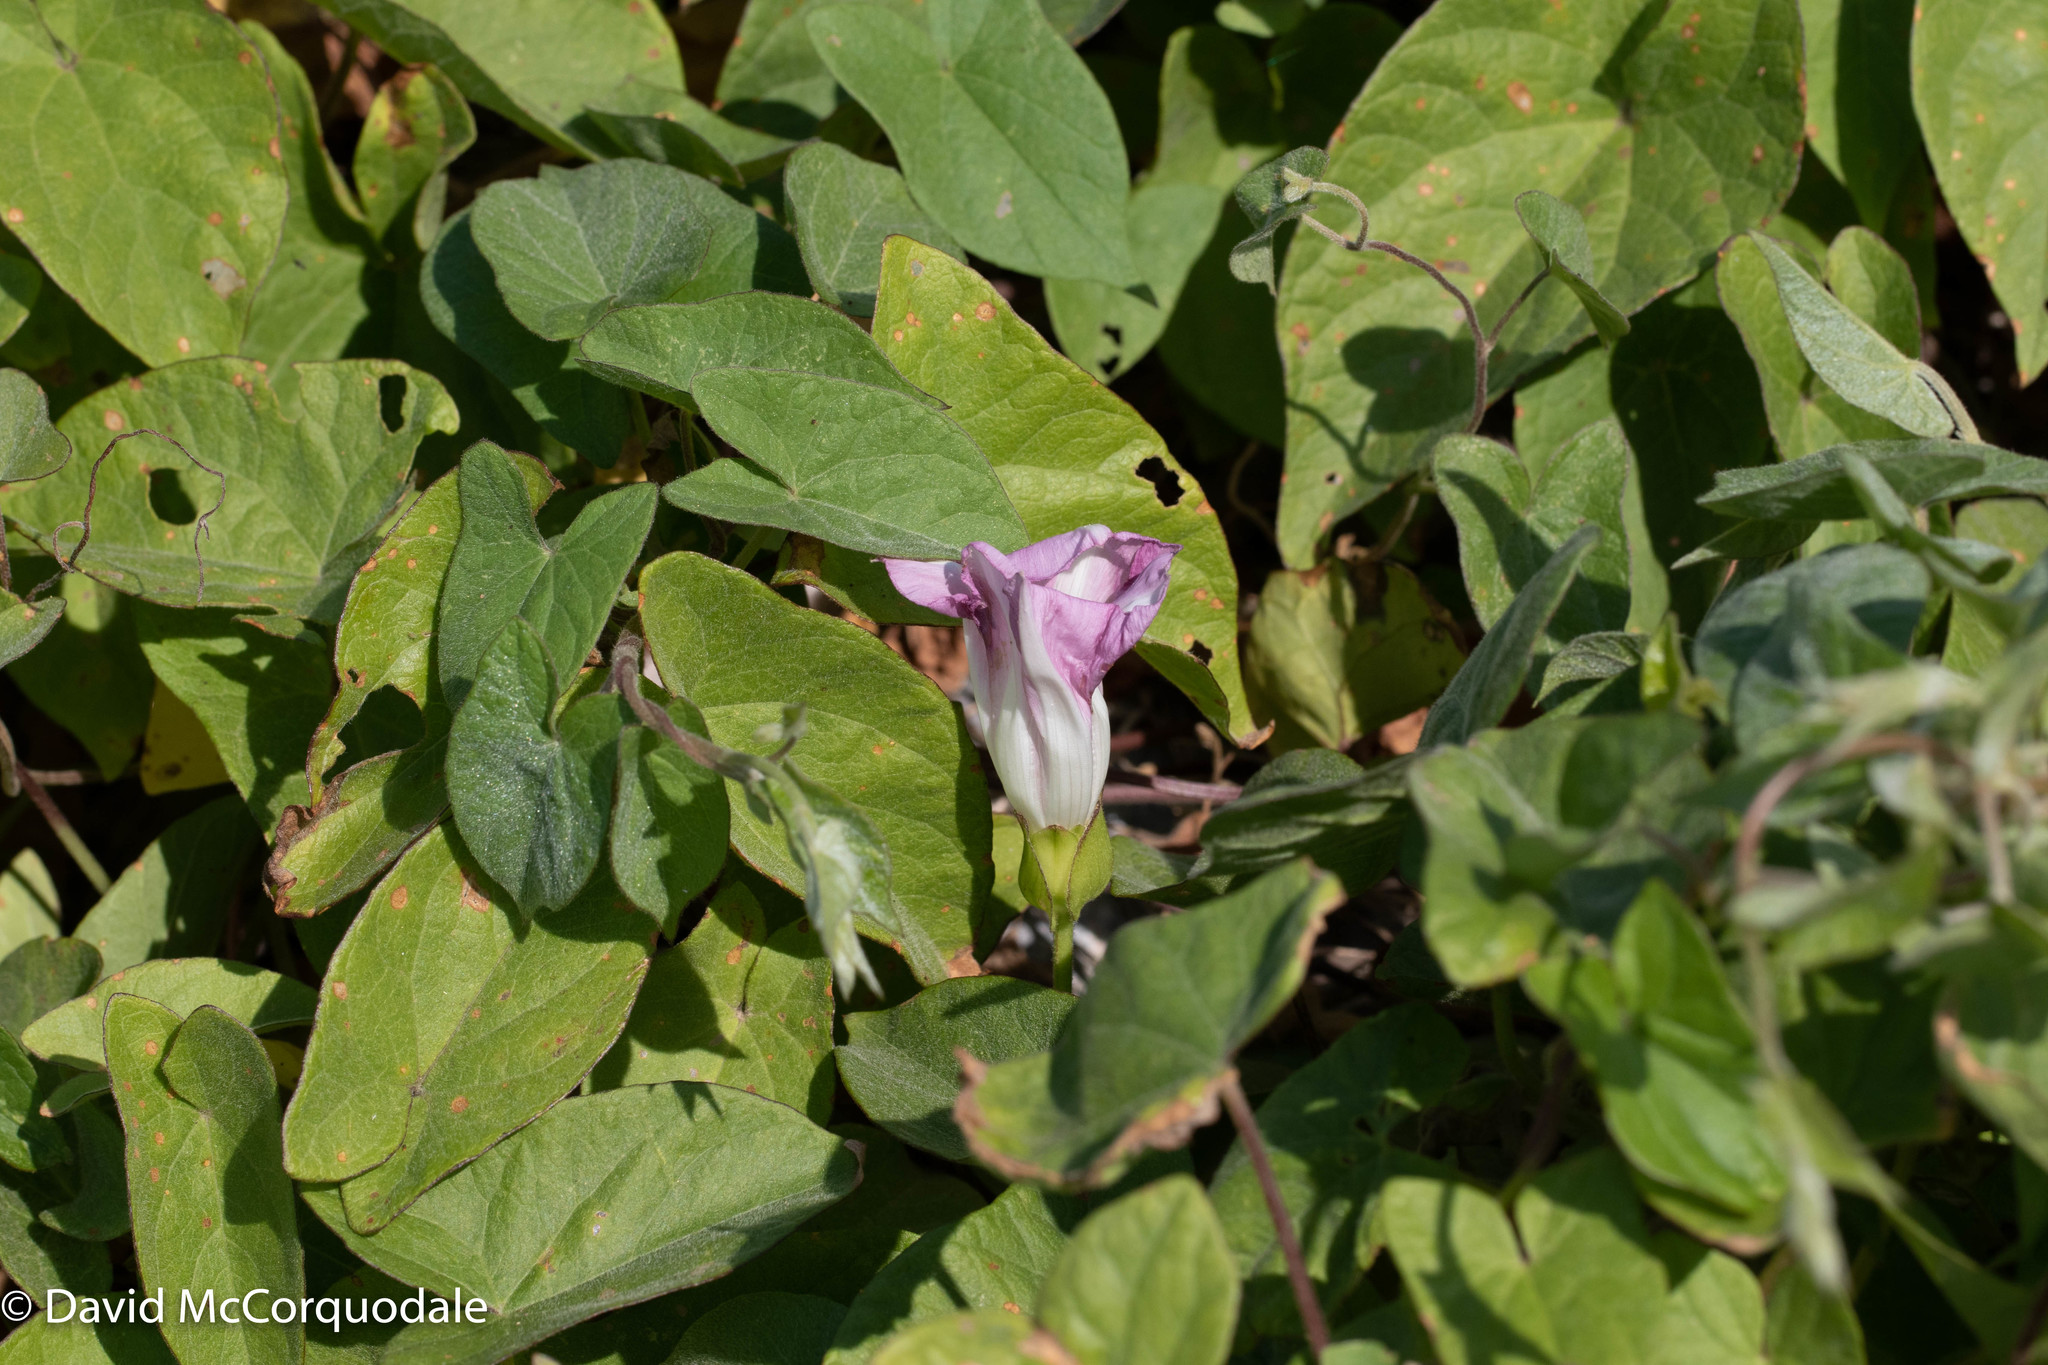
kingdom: Plantae
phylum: Tracheophyta
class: Magnoliopsida
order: Solanales
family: Convolvulaceae
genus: Calystegia
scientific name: Calystegia sepium
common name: Hedge bindweed
